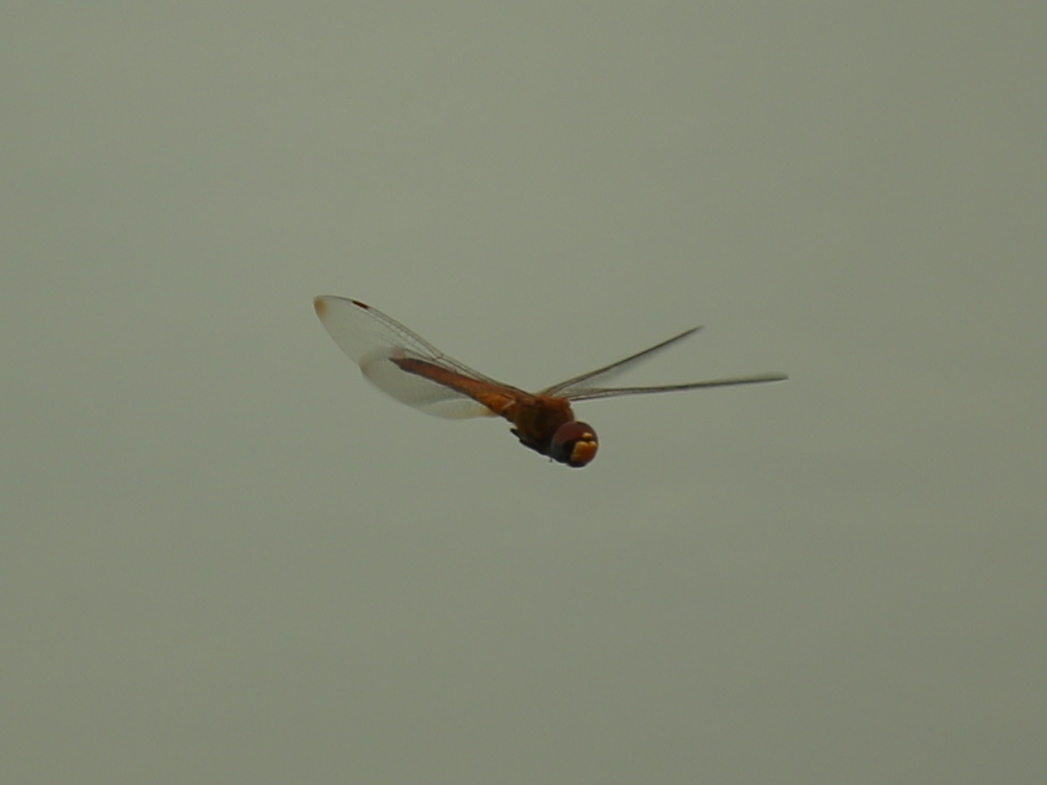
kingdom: Animalia
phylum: Arthropoda
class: Insecta
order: Odonata
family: Libellulidae
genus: Pantala
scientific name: Pantala flavescens
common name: Wandering glider
